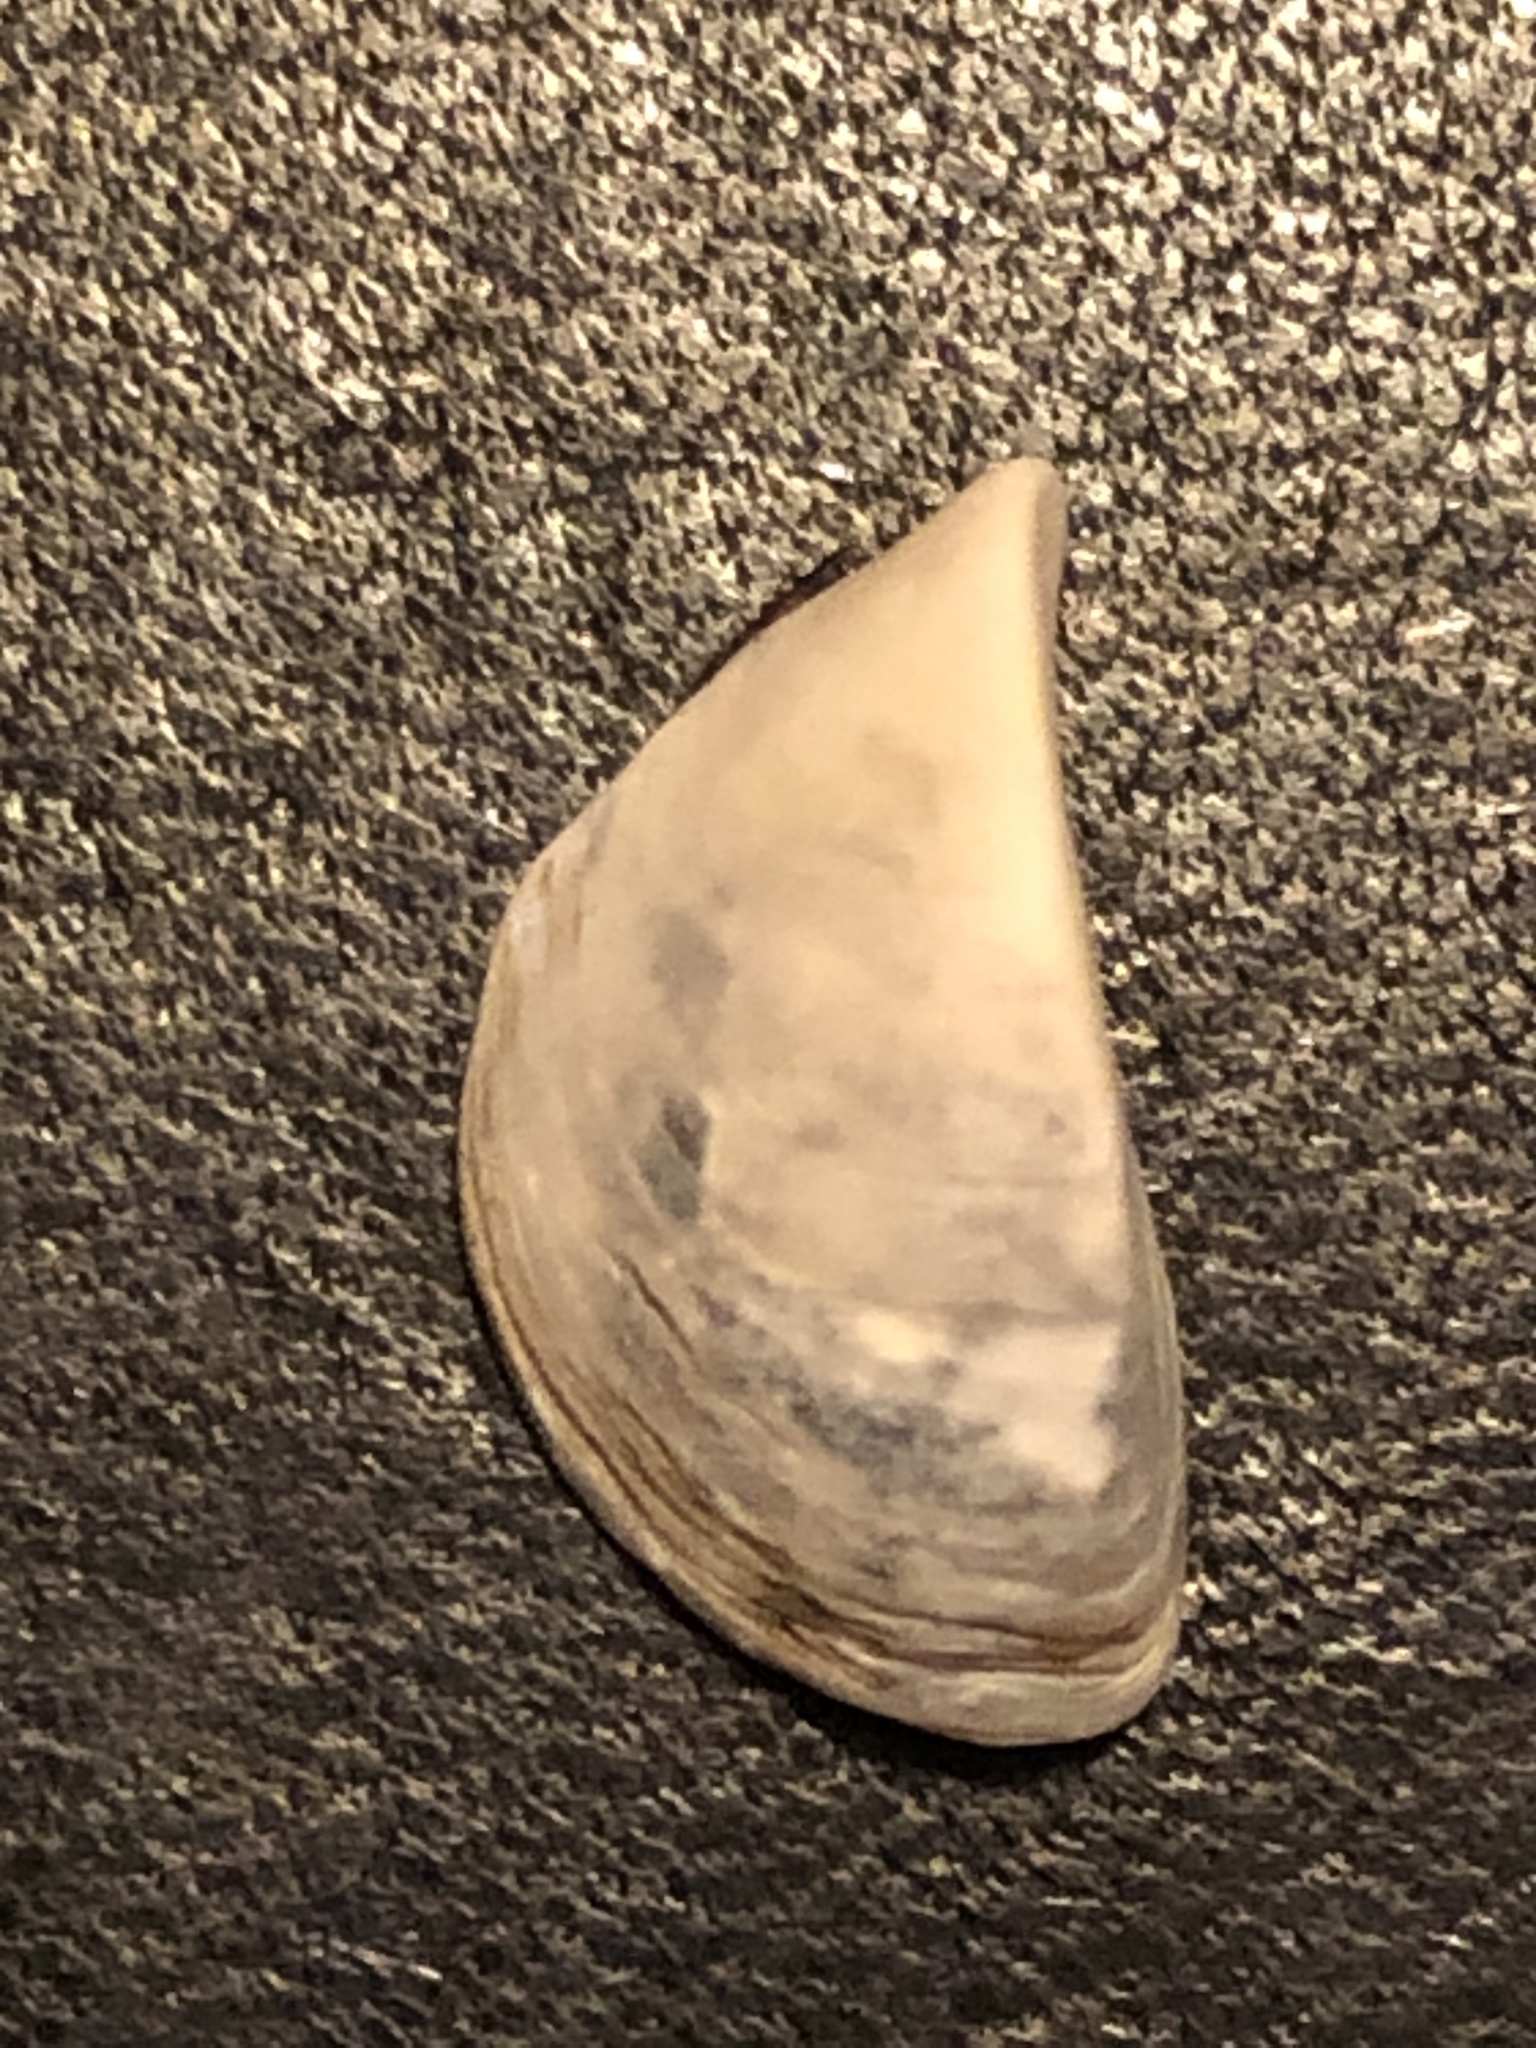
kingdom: Animalia
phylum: Mollusca
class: Bivalvia
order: Myida
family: Dreissenidae
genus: Dreissena
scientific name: Dreissena polymorpha
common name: Zebra mussel
